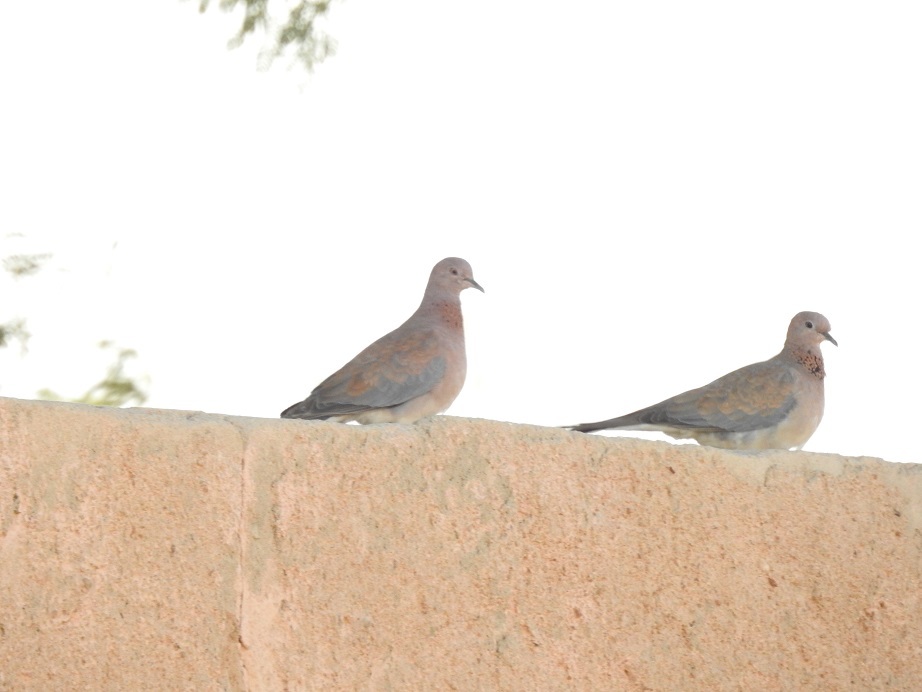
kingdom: Animalia
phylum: Chordata
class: Aves
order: Columbiformes
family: Columbidae
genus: Spilopelia
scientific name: Spilopelia senegalensis
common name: Laughing dove
